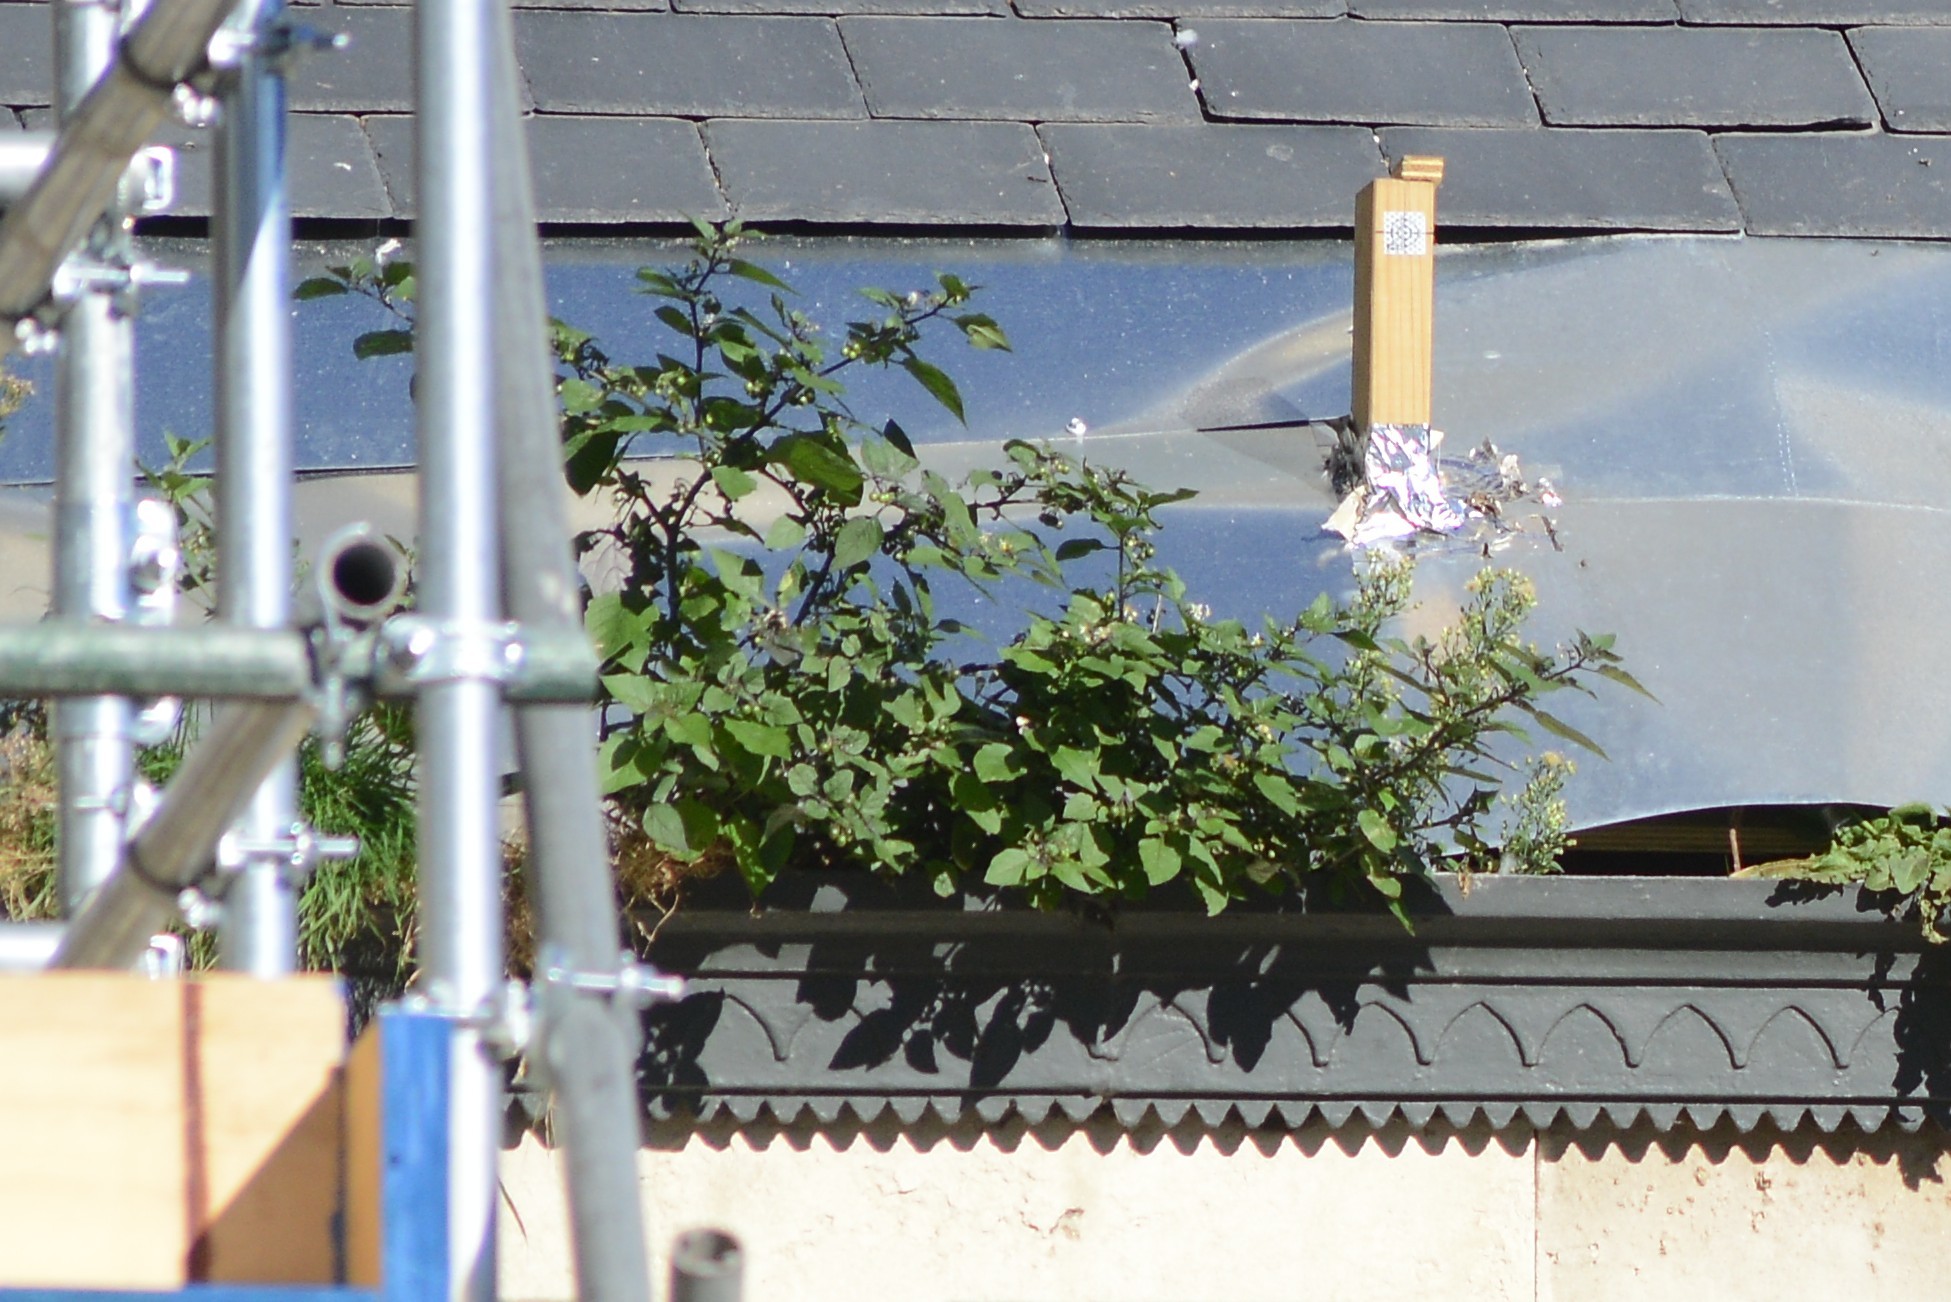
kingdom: Plantae
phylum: Tracheophyta
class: Magnoliopsida
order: Solanales
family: Solanaceae
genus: Solanum
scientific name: Solanum nigrum
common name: Black nightshade
